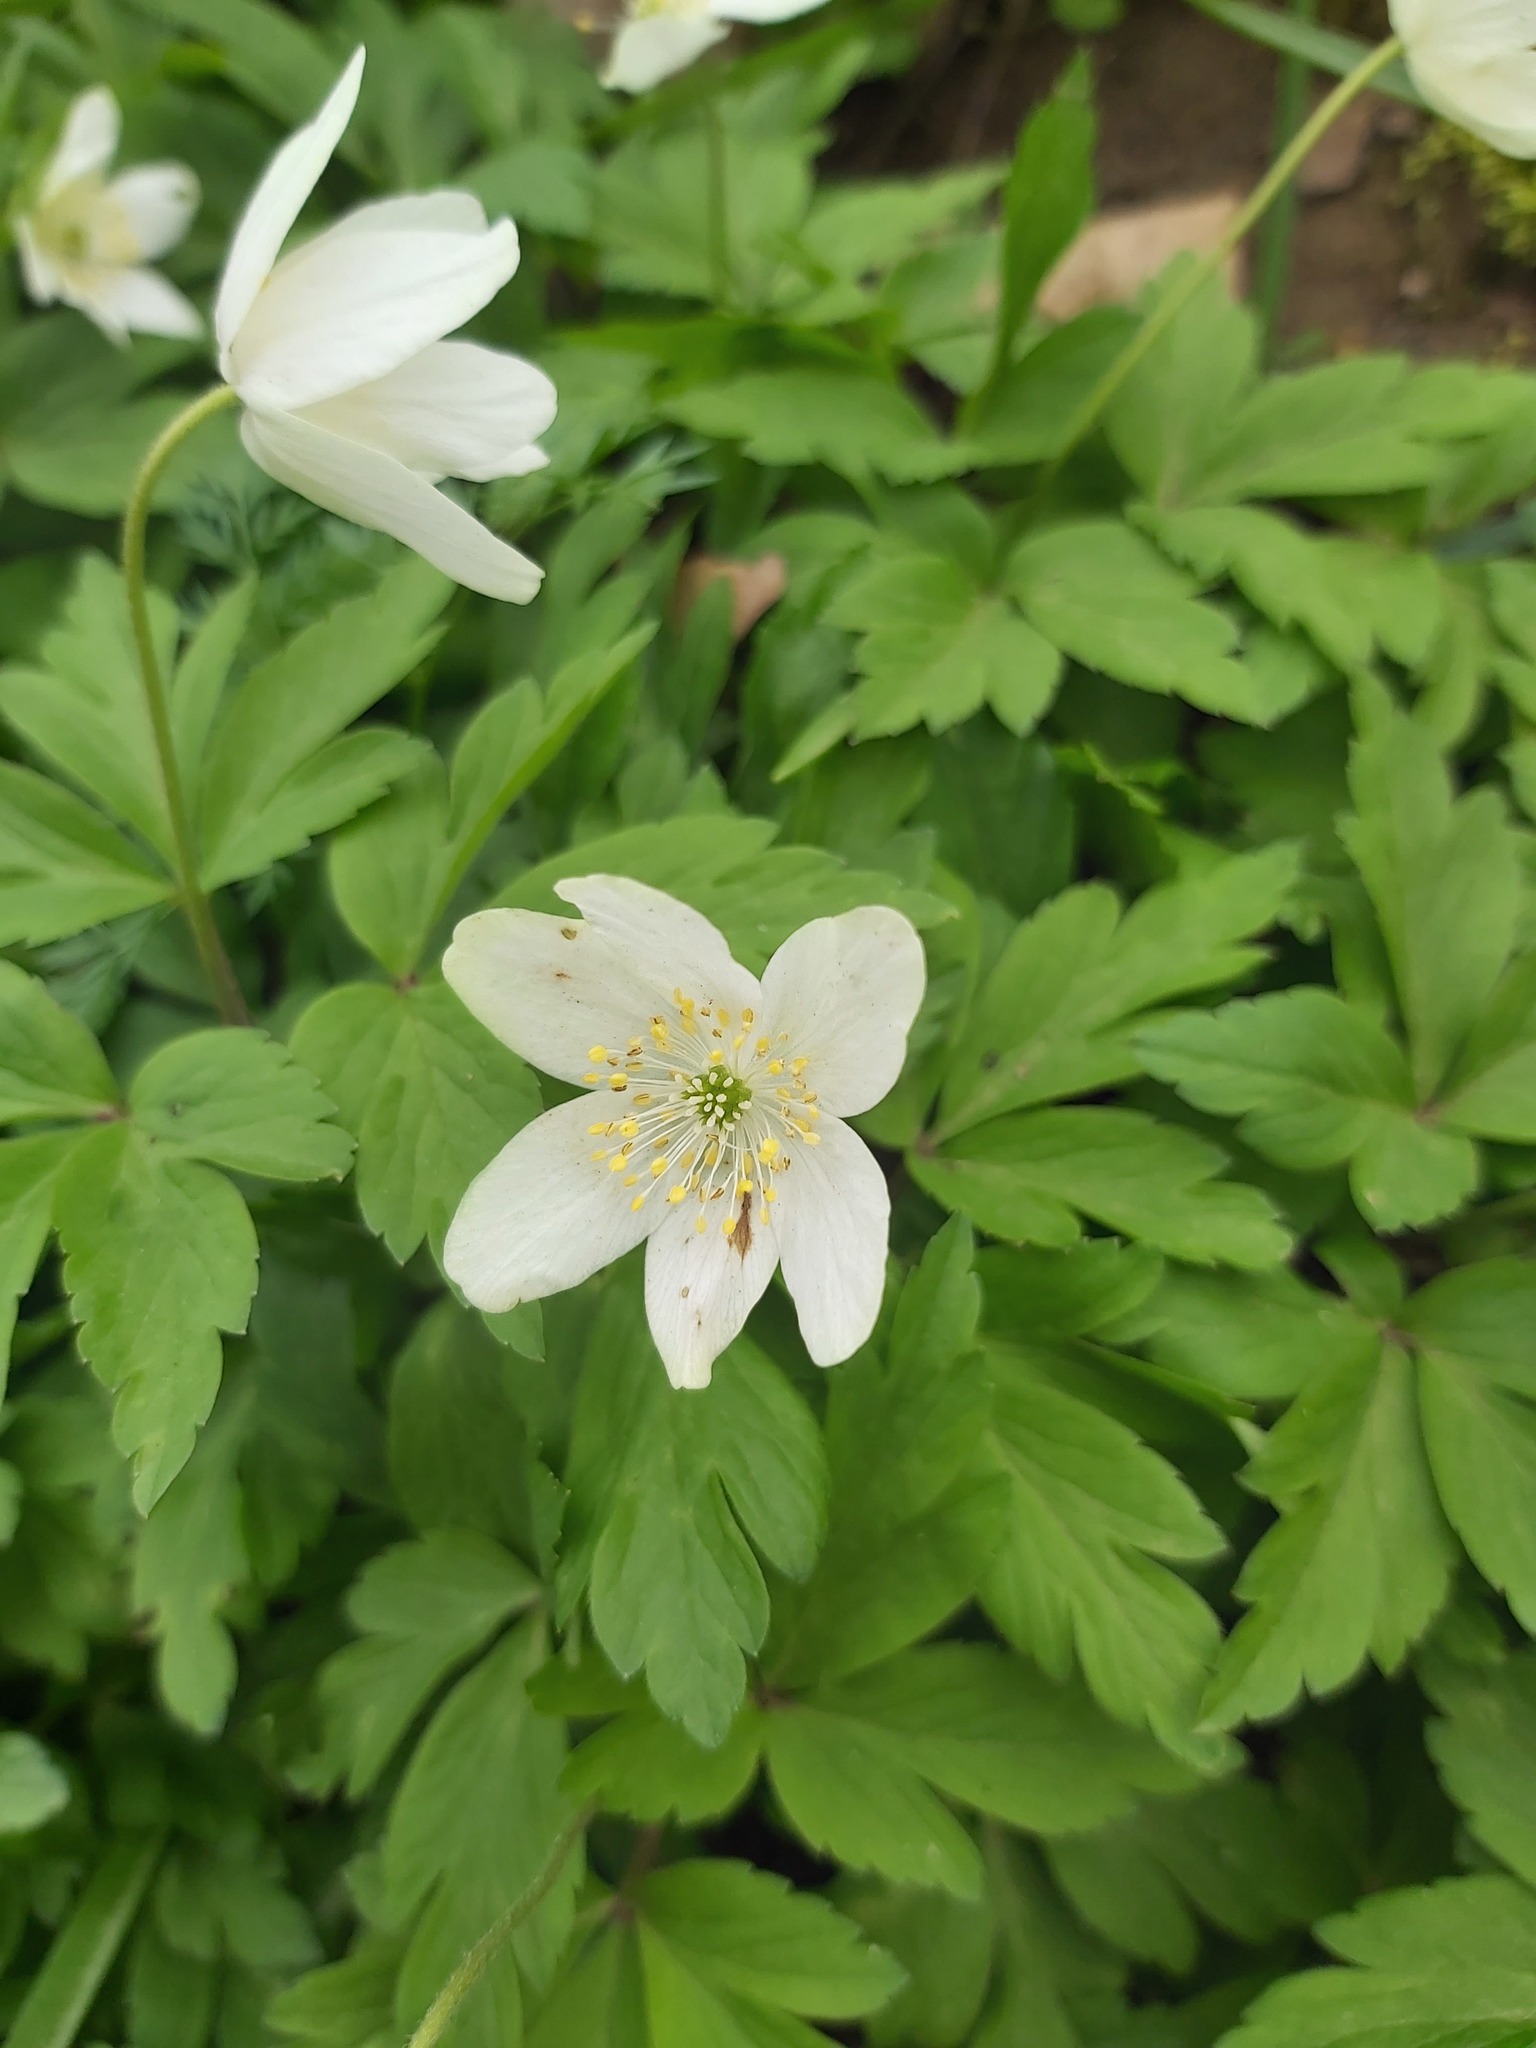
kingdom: Plantae
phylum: Tracheophyta
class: Magnoliopsida
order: Ranunculales
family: Ranunculaceae
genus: Anemone
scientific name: Anemone nemorosa
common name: Wood anemone
